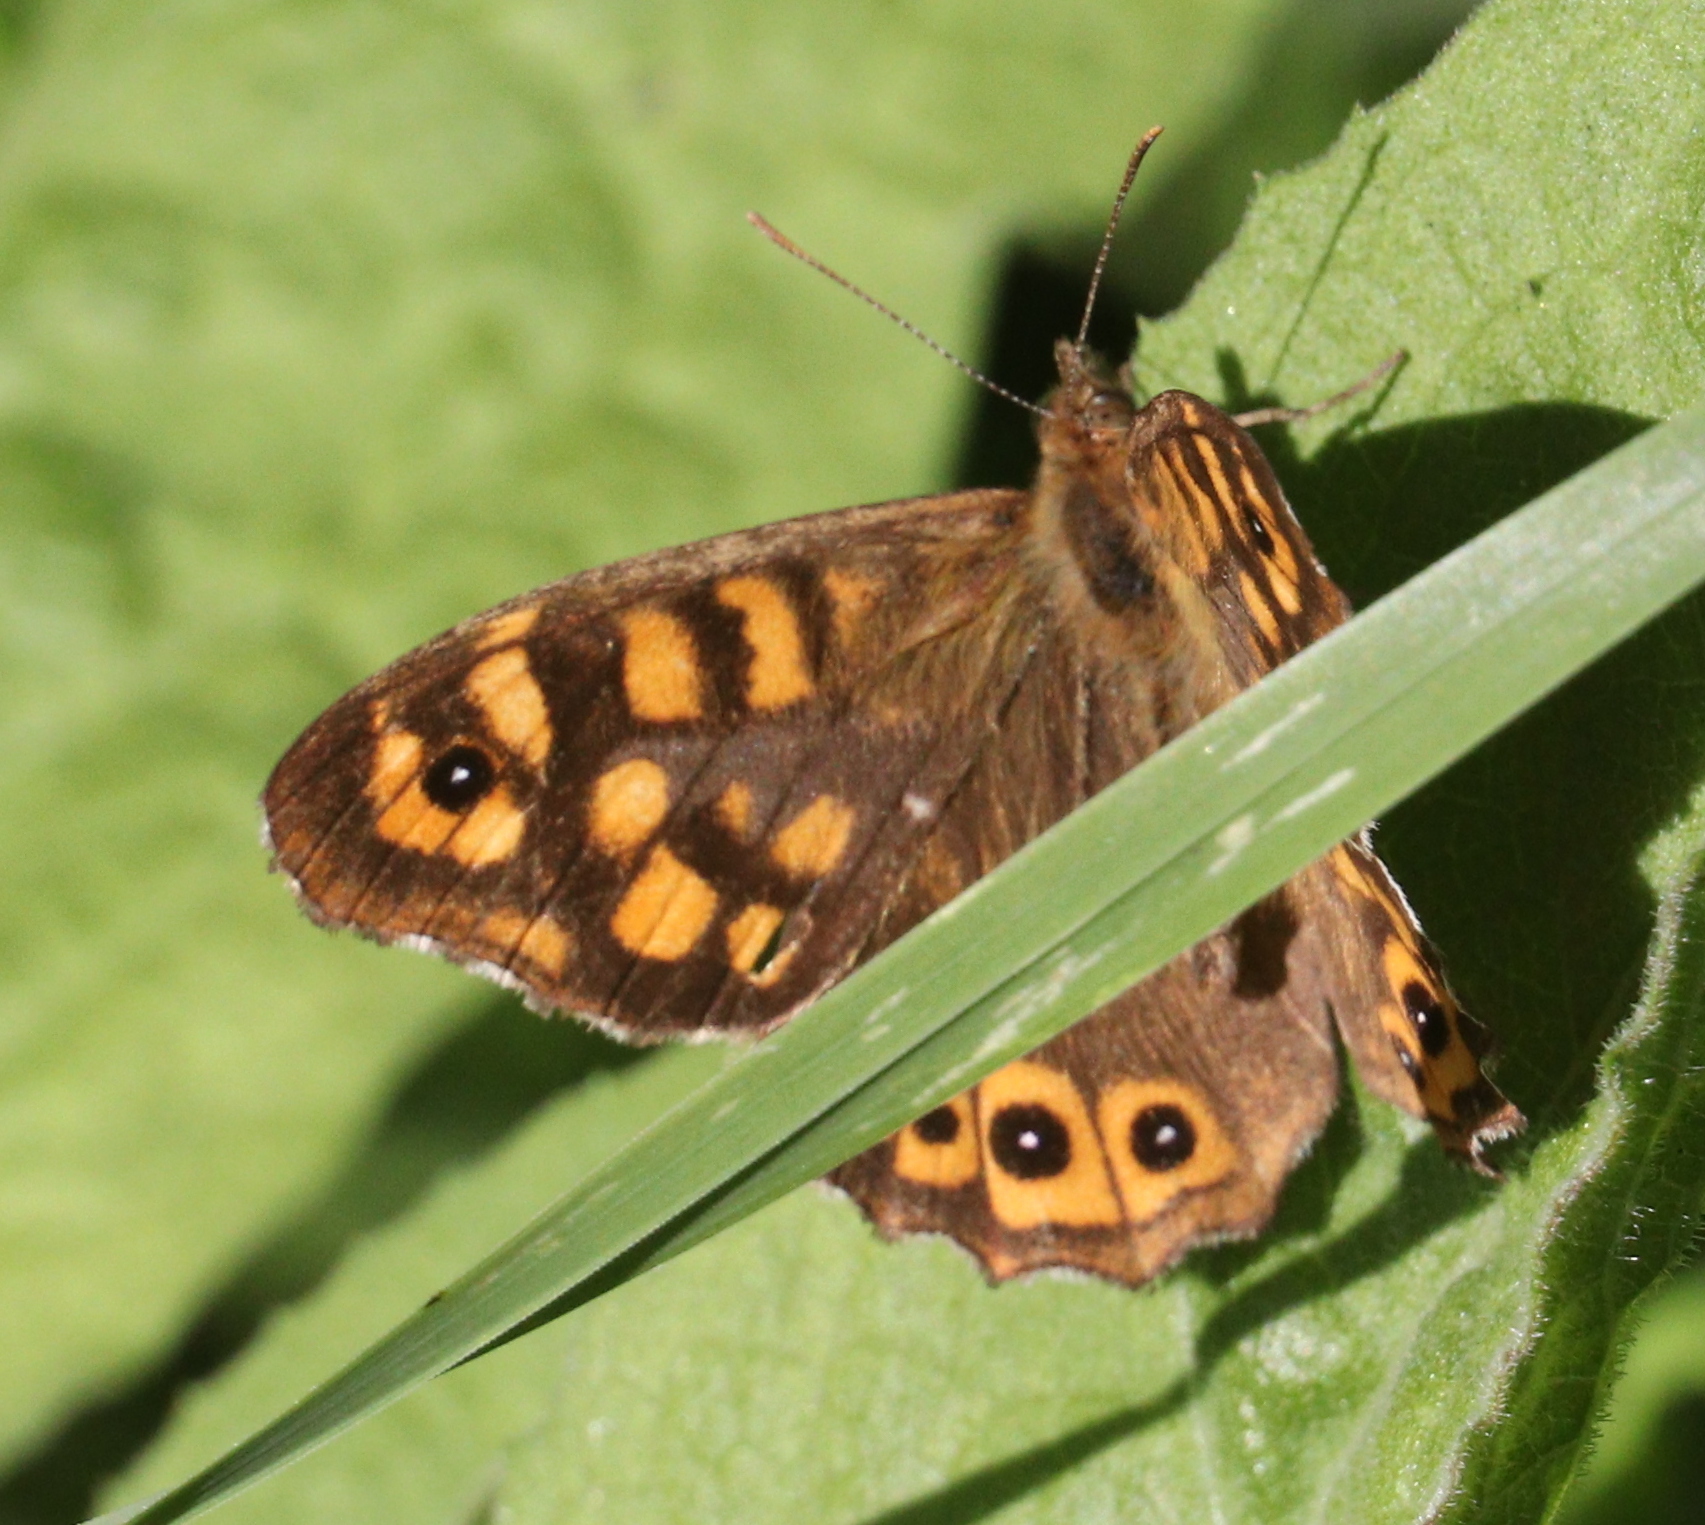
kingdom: Animalia
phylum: Arthropoda
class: Insecta
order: Lepidoptera
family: Nymphalidae
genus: Pararge
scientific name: Pararge aegeria
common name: Speckled wood
